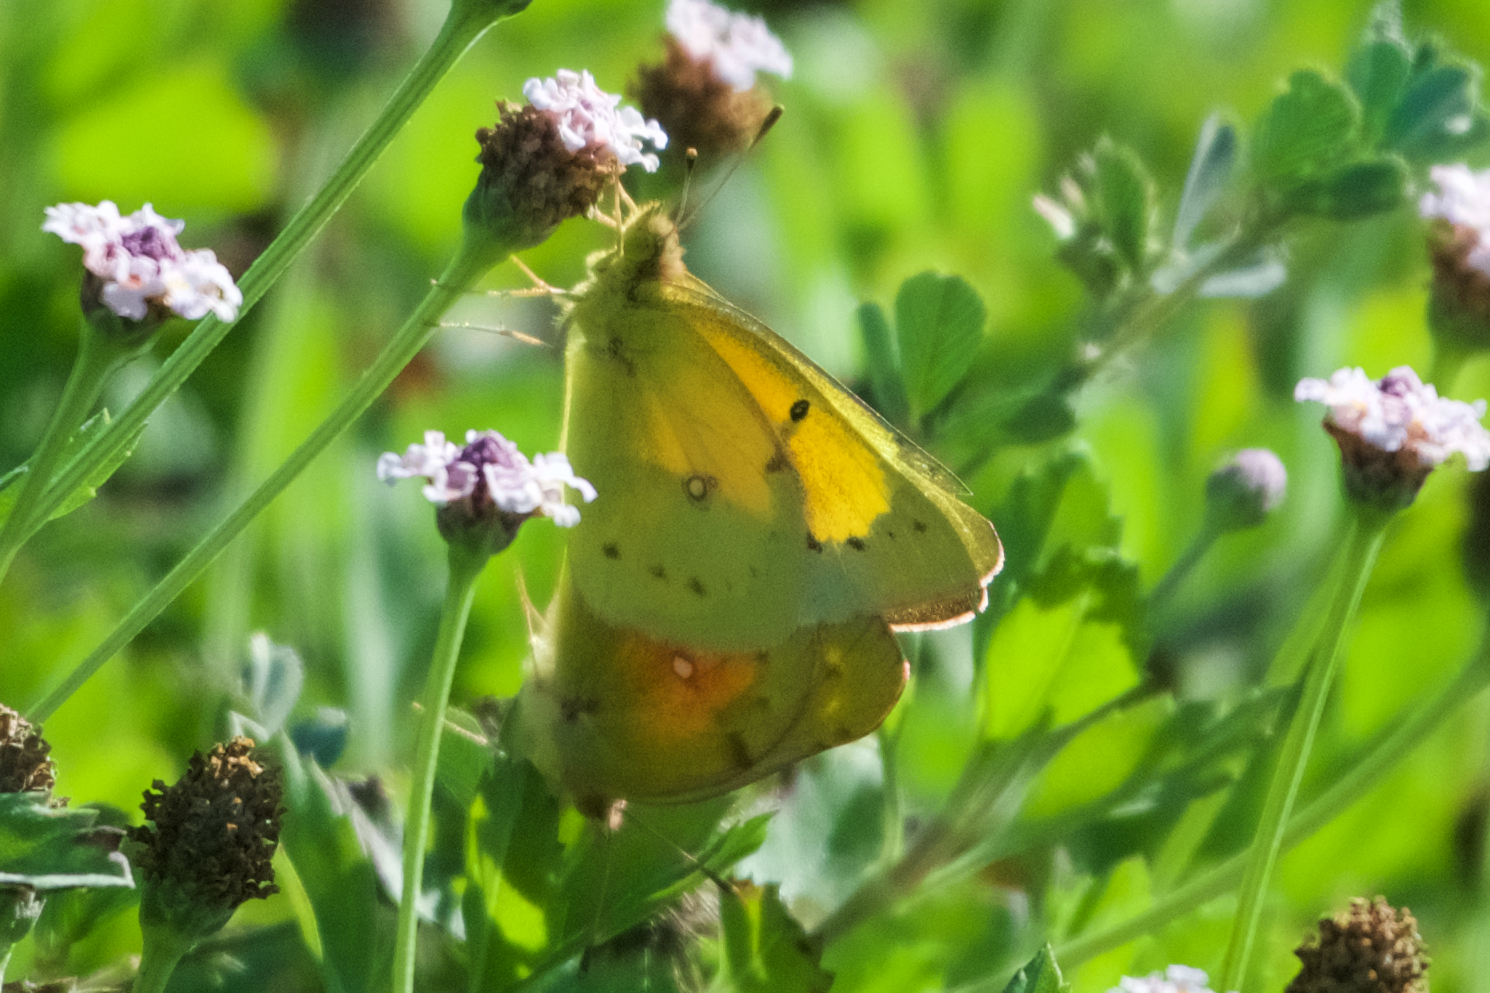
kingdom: Animalia
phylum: Arthropoda
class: Insecta
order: Lepidoptera
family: Pieridae
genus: Colias
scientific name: Colias eurytheme
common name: Alfalfa butterfly
